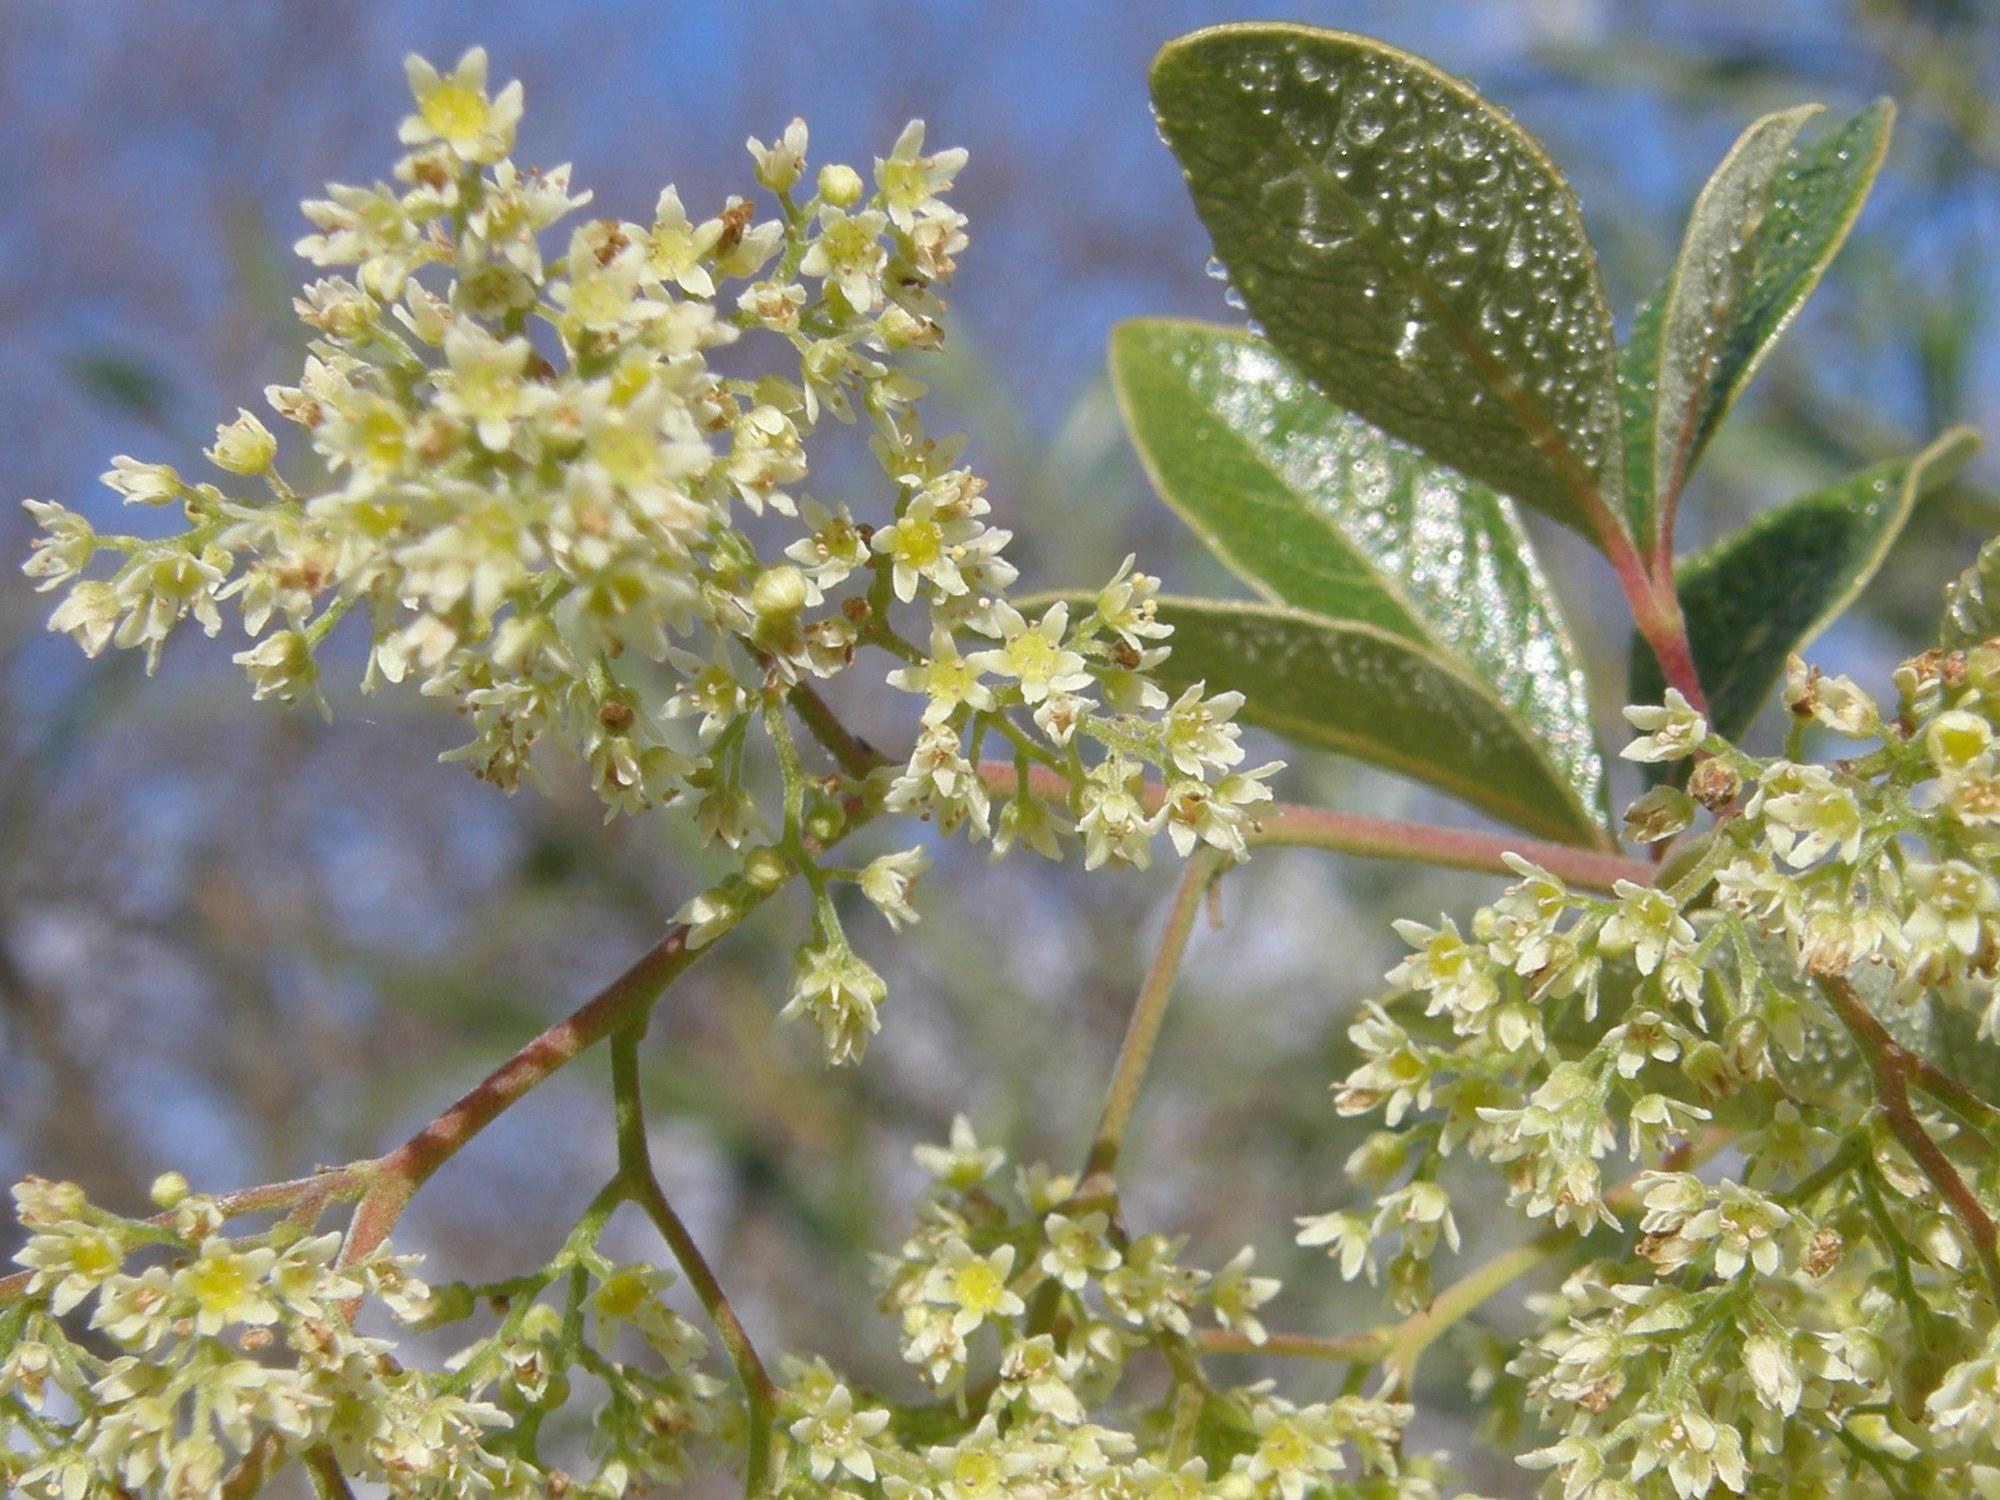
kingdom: Plantae
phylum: Tracheophyta
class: Magnoliopsida
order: Sapindales
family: Anacardiaceae
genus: Searsia
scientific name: Searsia tomentosa
